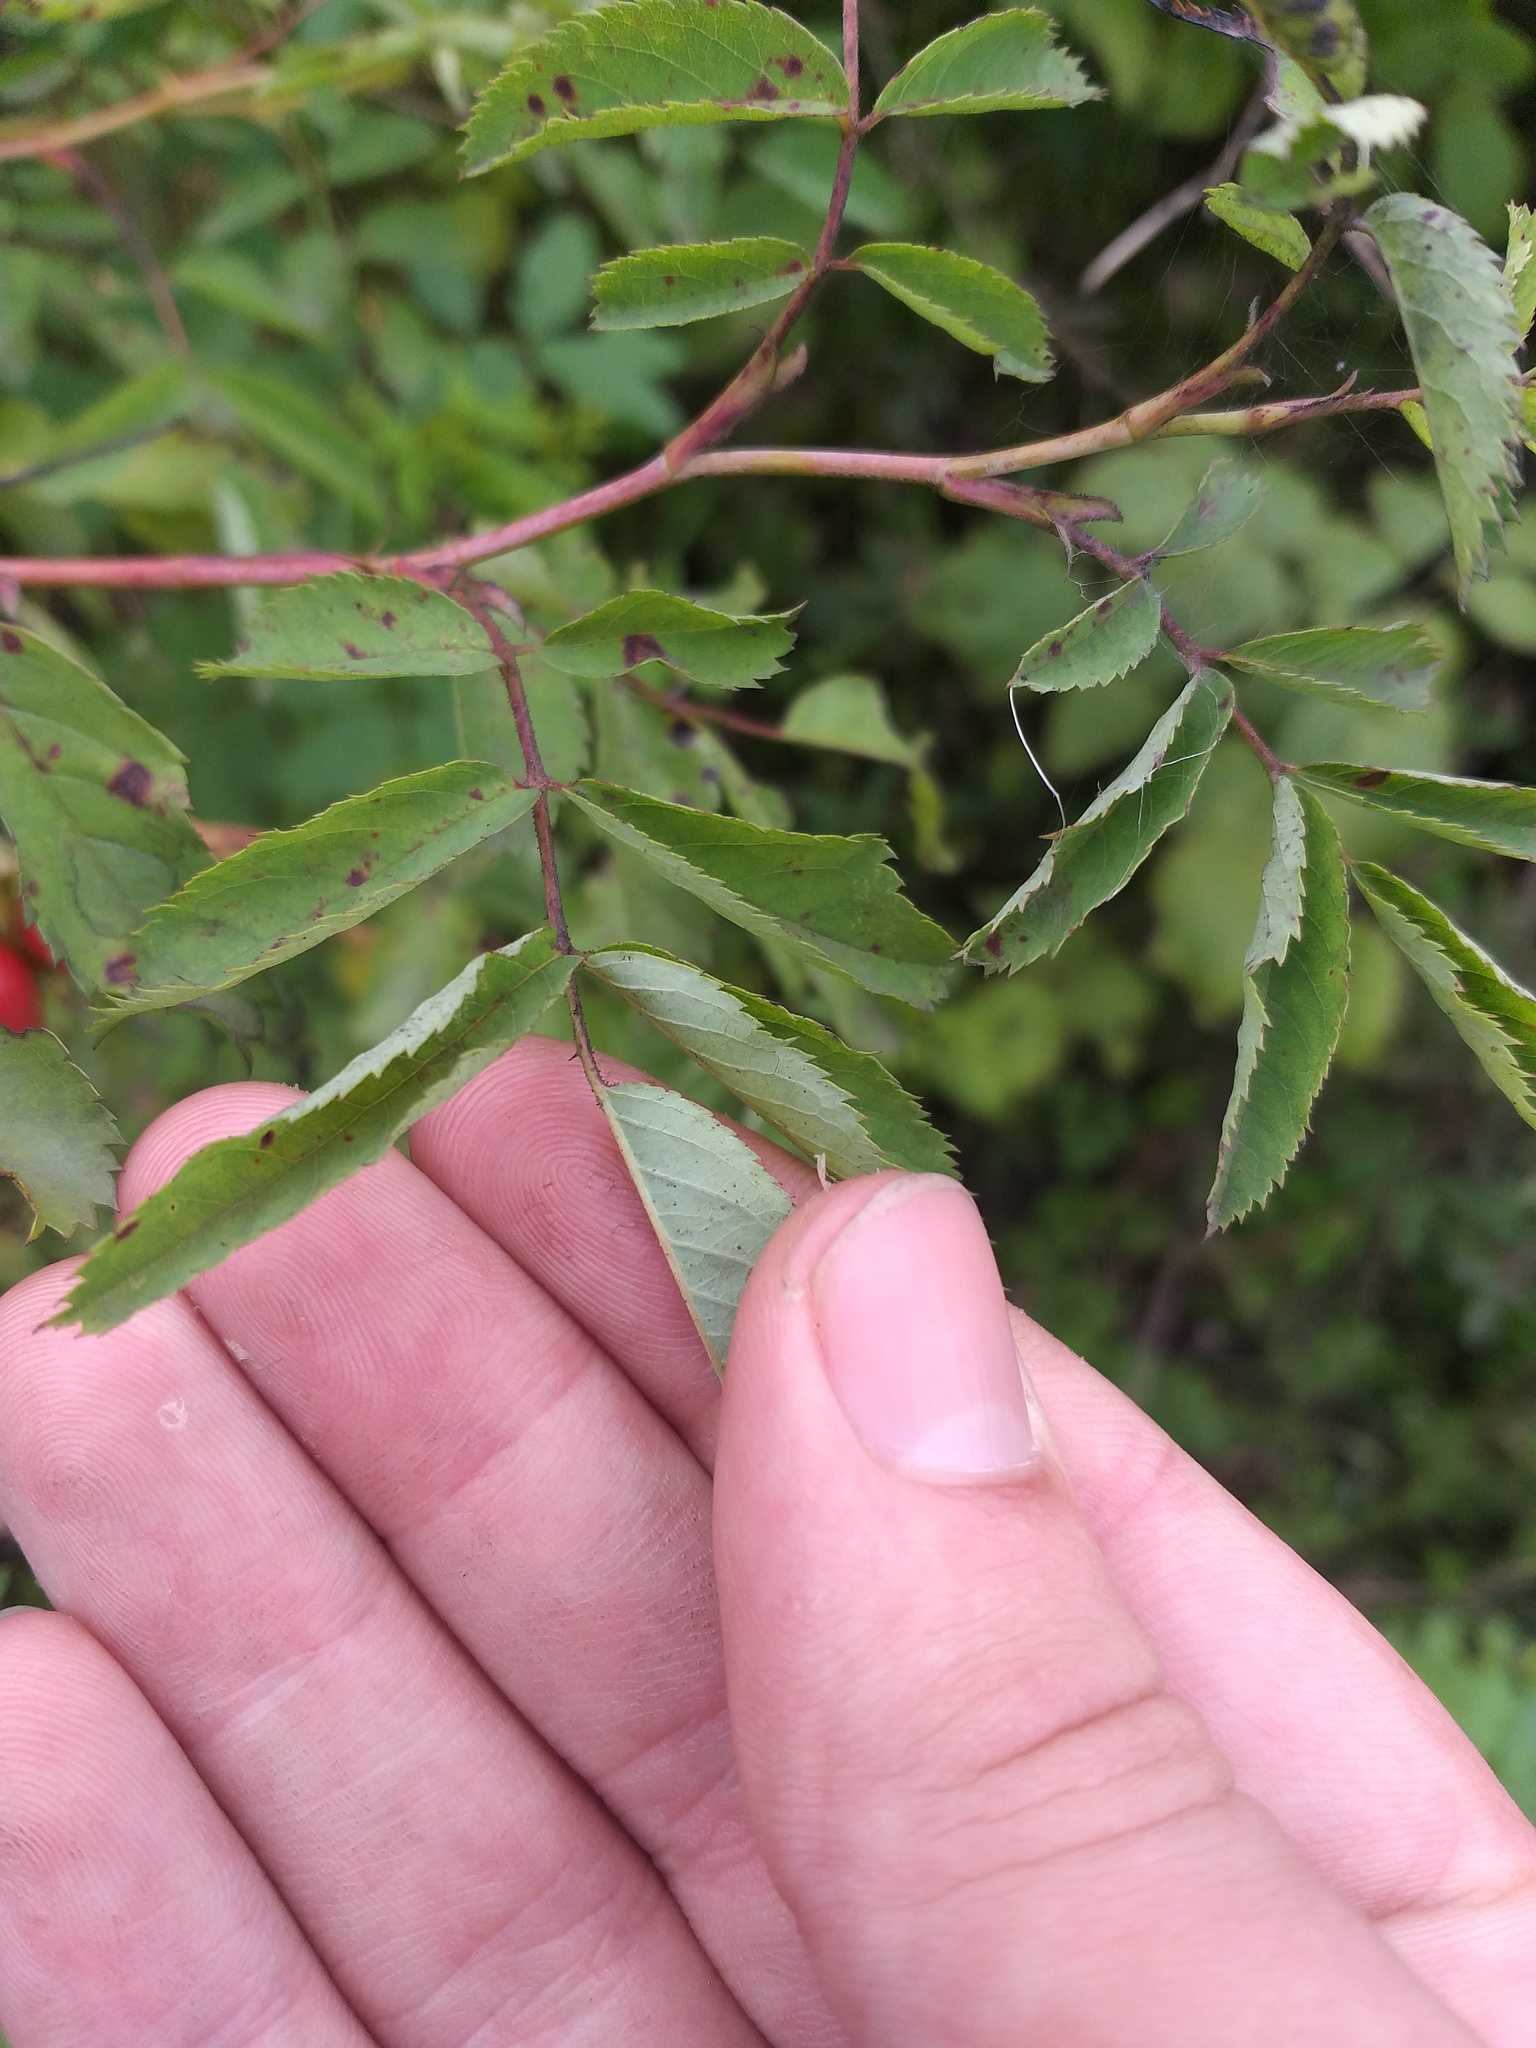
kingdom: Plantae
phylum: Tracheophyta
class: Magnoliopsida
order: Rosales
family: Rosaceae
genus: Rosa
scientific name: Rosa glabrifolia
